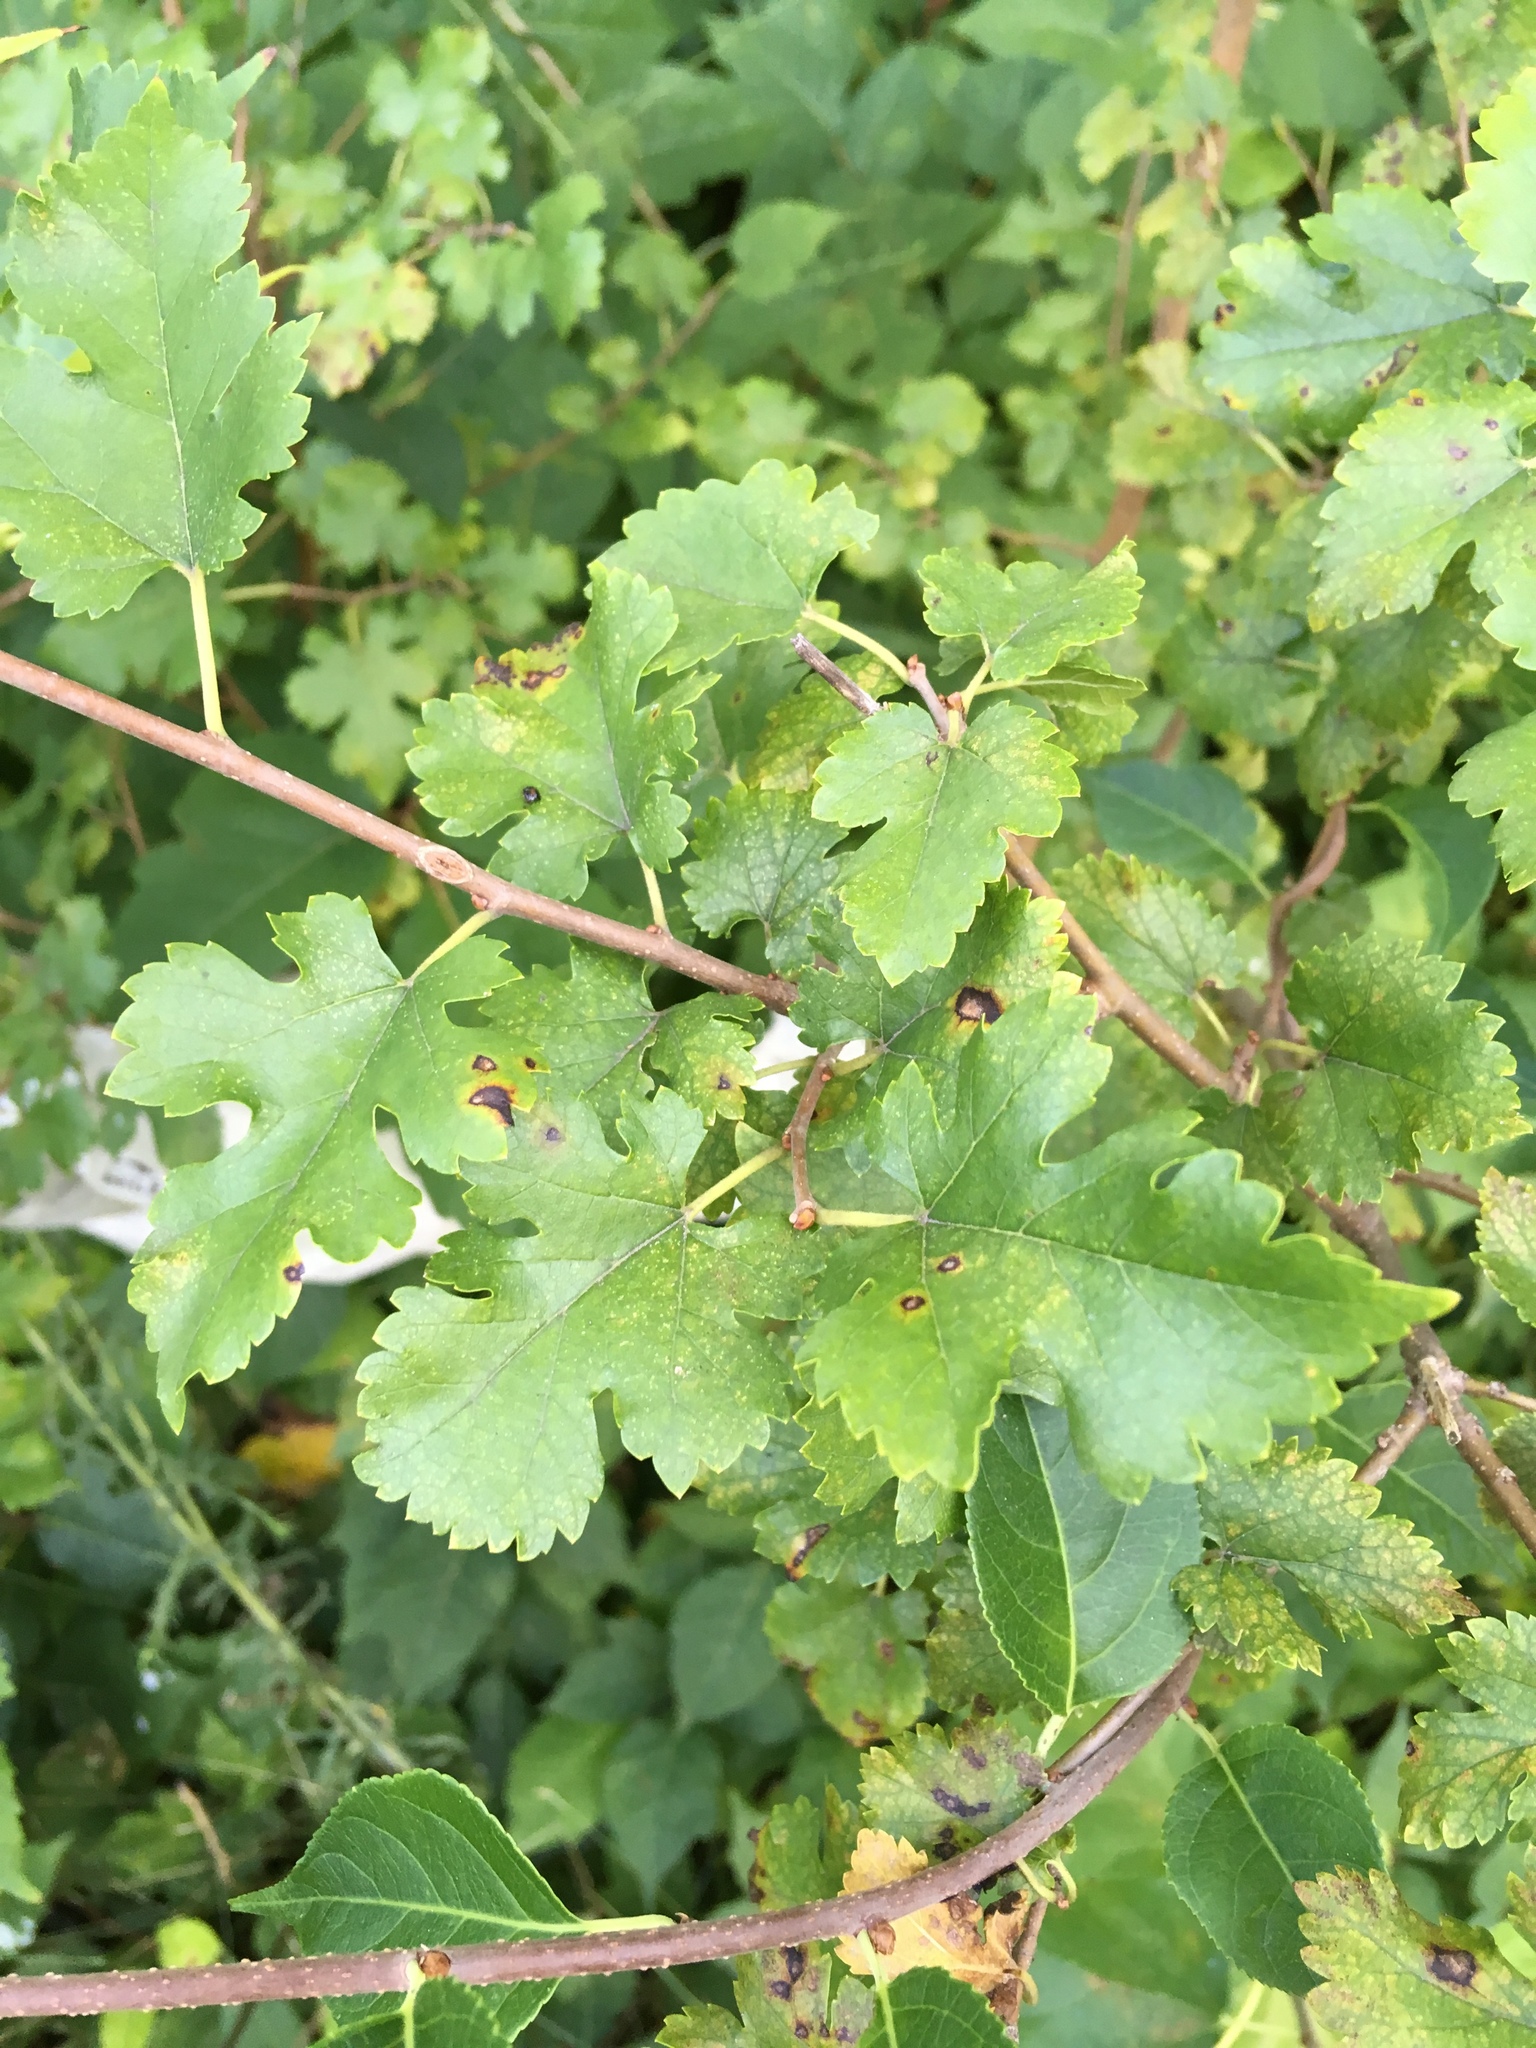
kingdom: Plantae
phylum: Tracheophyta
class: Magnoliopsida
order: Rosales
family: Moraceae
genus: Morus
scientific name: Morus alba
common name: White mulberry
